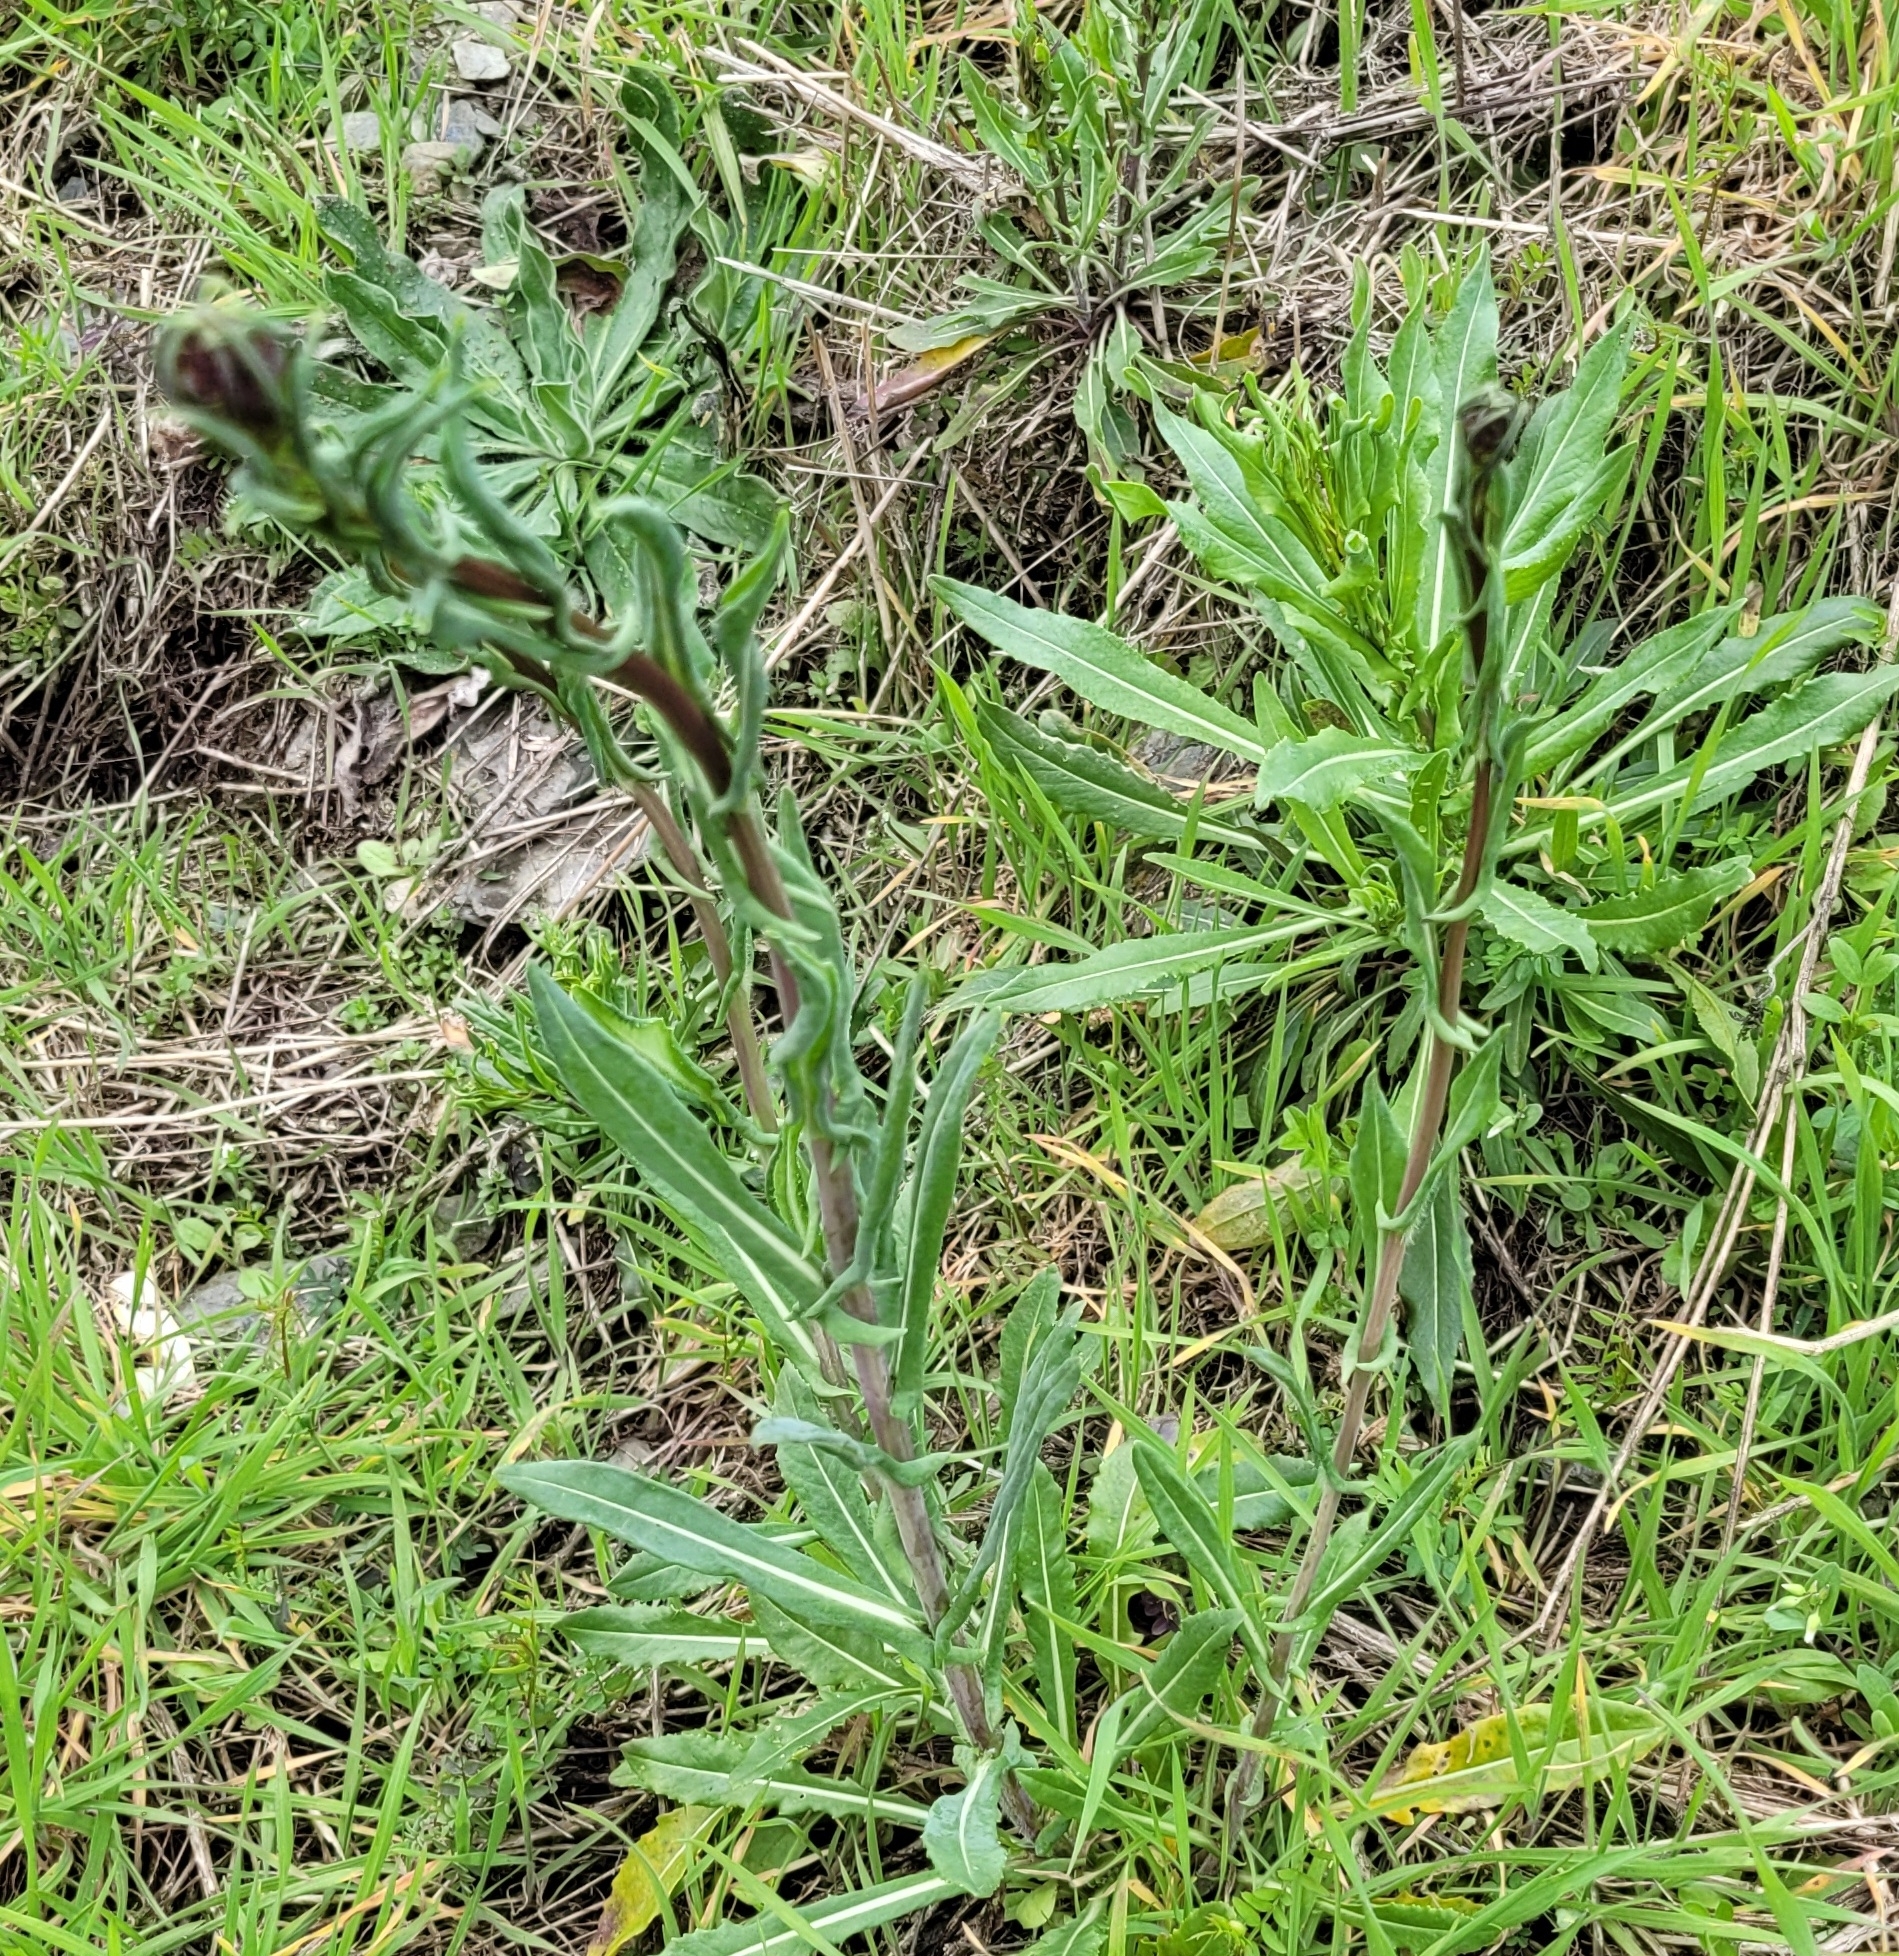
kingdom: Plantae
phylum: Tracheophyta
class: Magnoliopsida
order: Brassicales
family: Brassicaceae
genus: Isatis
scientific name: Isatis tinctoria
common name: Woad
